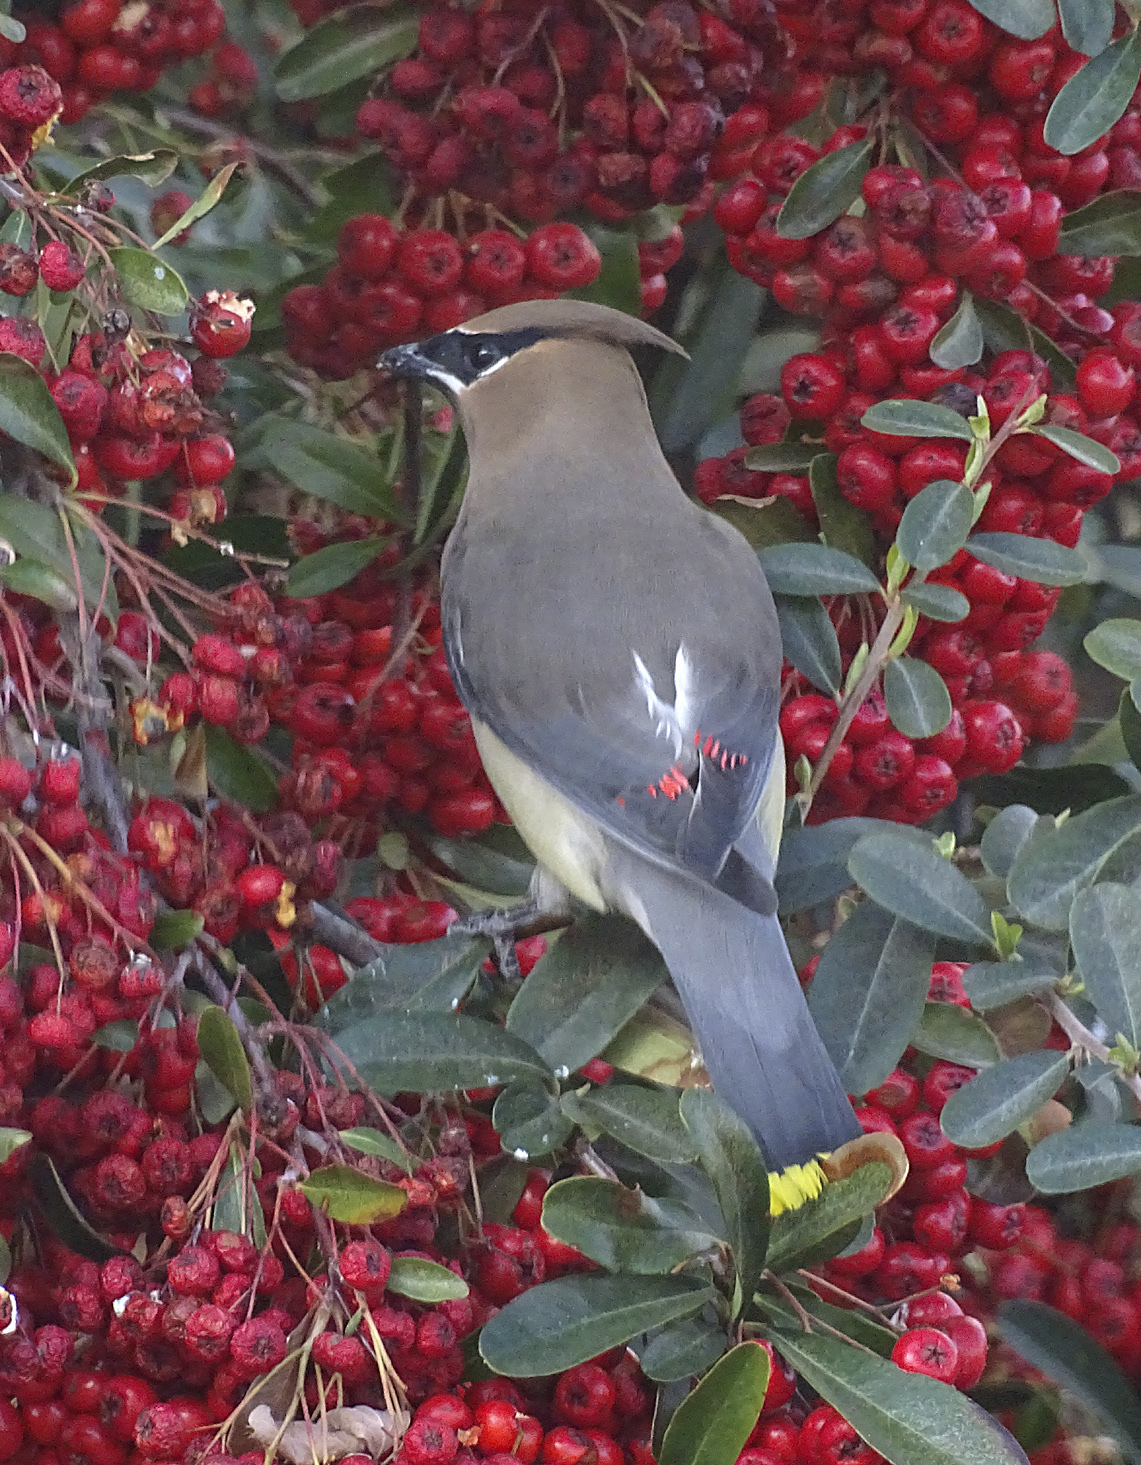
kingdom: Animalia
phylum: Chordata
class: Aves
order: Passeriformes
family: Bombycillidae
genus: Bombycilla
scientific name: Bombycilla cedrorum
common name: Cedar waxwing
